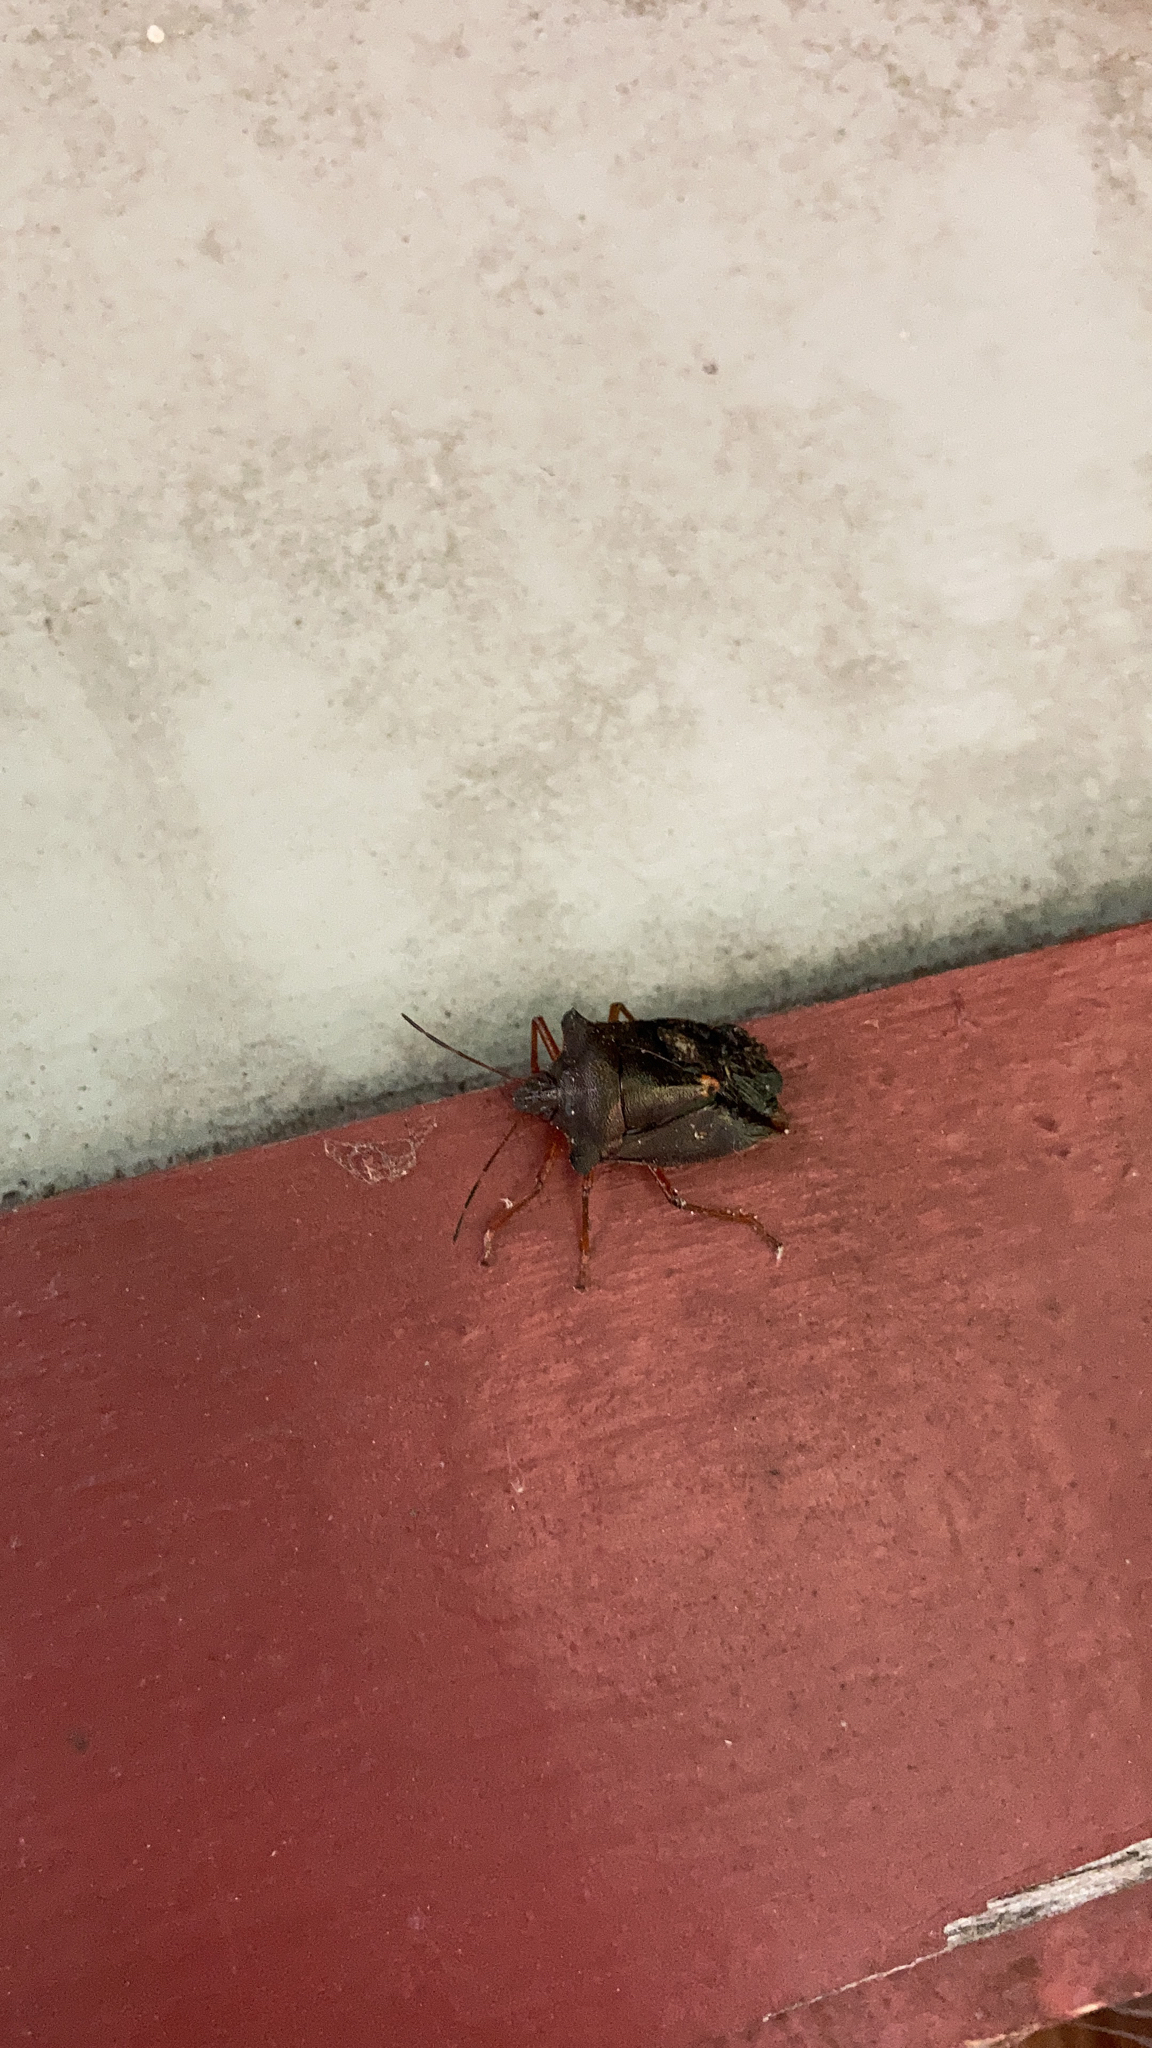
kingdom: Animalia
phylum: Arthropoda
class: Insecta
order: Hemiptera
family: Pentatomidae
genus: Pentatoma
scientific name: Pentatoma rufipes
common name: Forest bug
